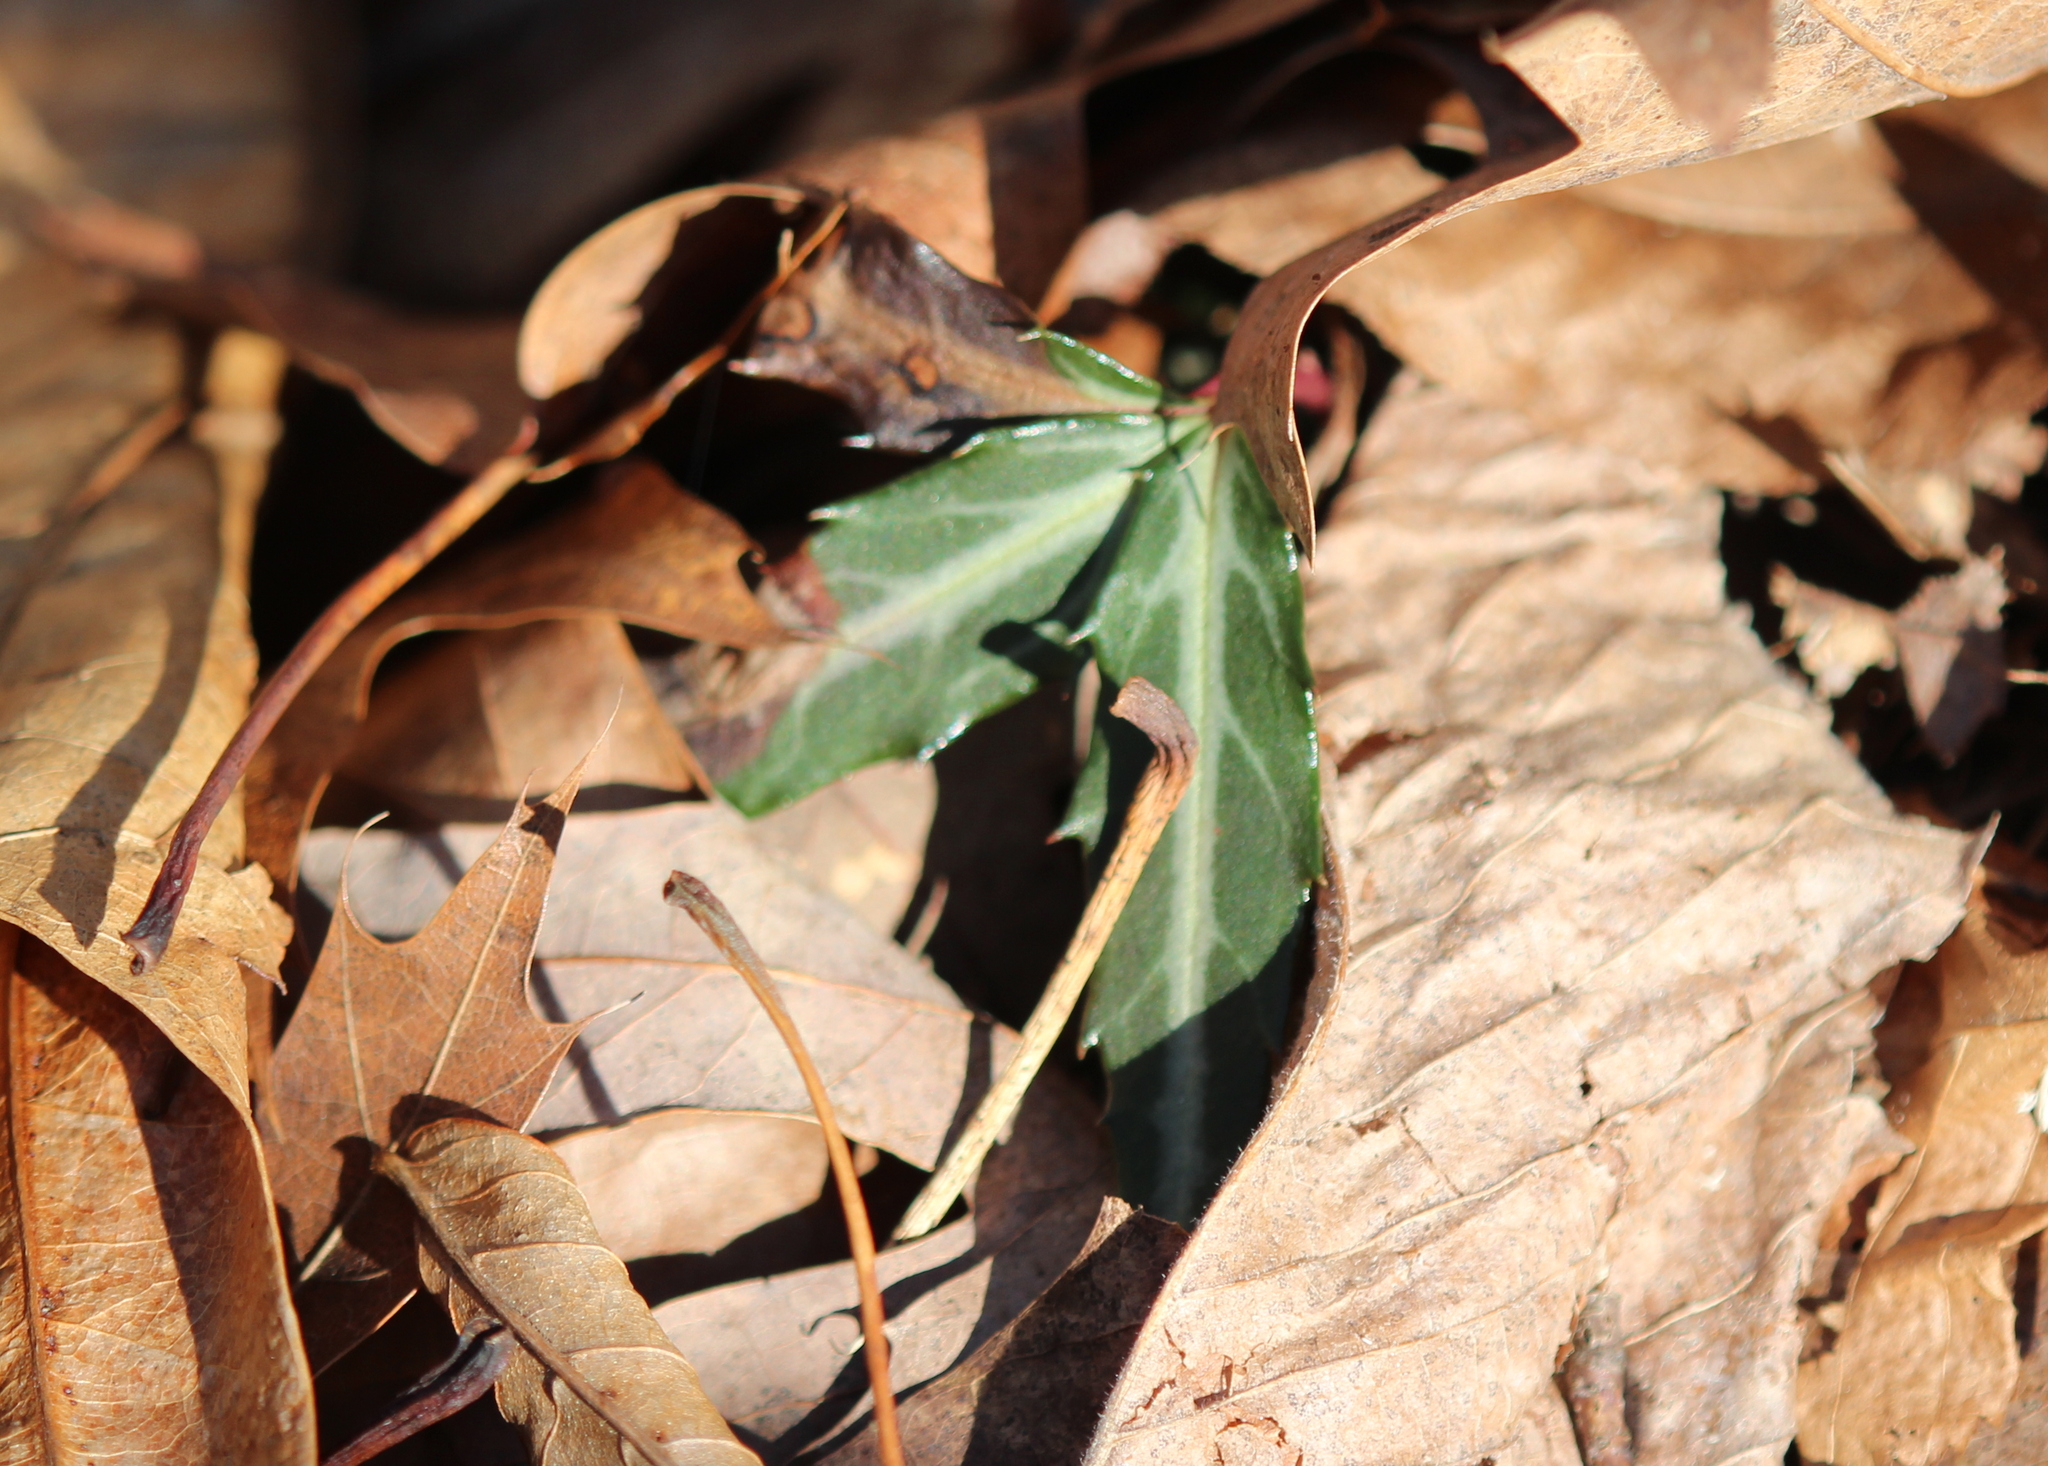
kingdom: Plantae
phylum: Tracheophyta
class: Magnoliopsida
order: Ericales
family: Ericaceae
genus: Chimaphila
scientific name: Chimaphila maculata
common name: Spotted pipsissewa
